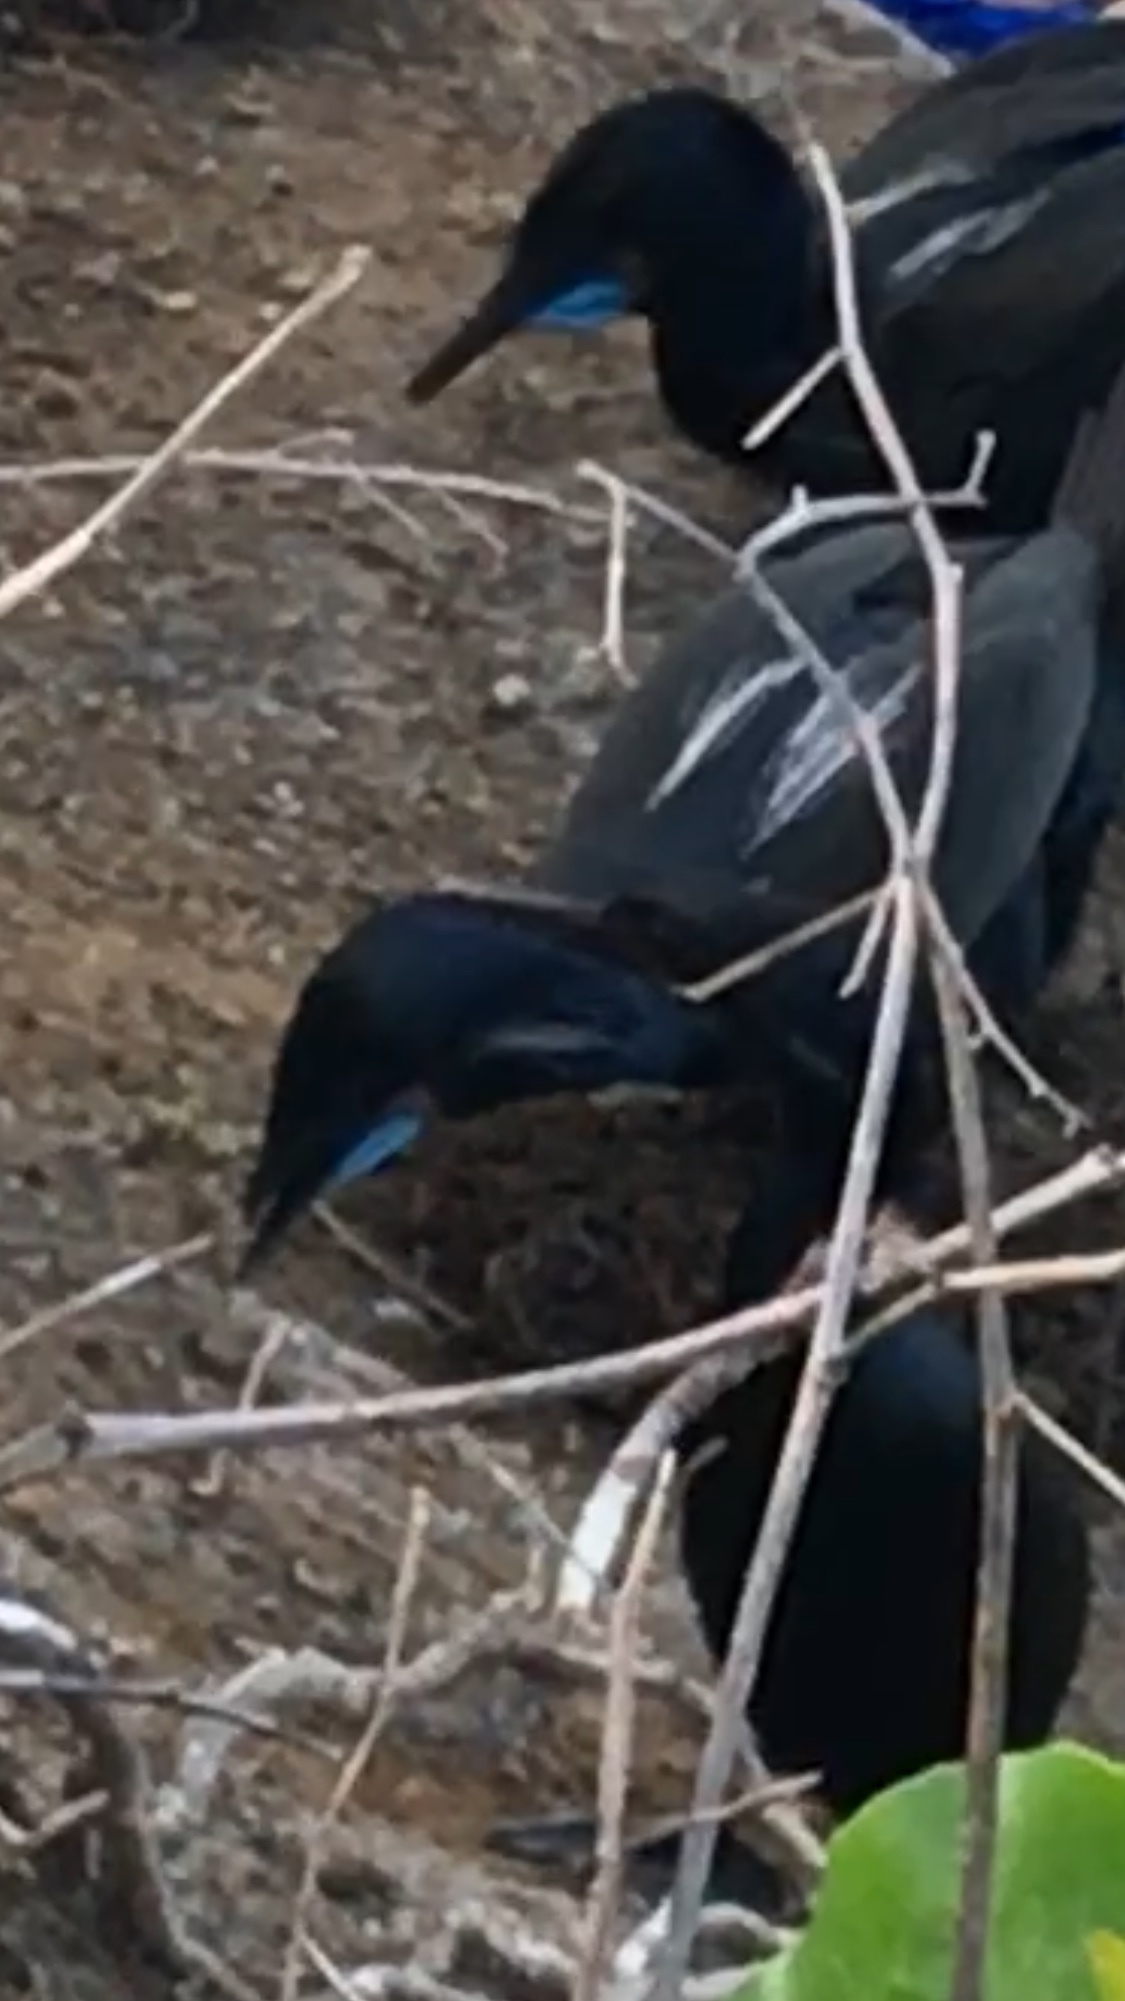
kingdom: Animalia
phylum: Chordata
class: Aves
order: Suliformes
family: Phalacrocoracidae
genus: Urile
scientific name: Urile penicillatus
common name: Brandt's cormorant
